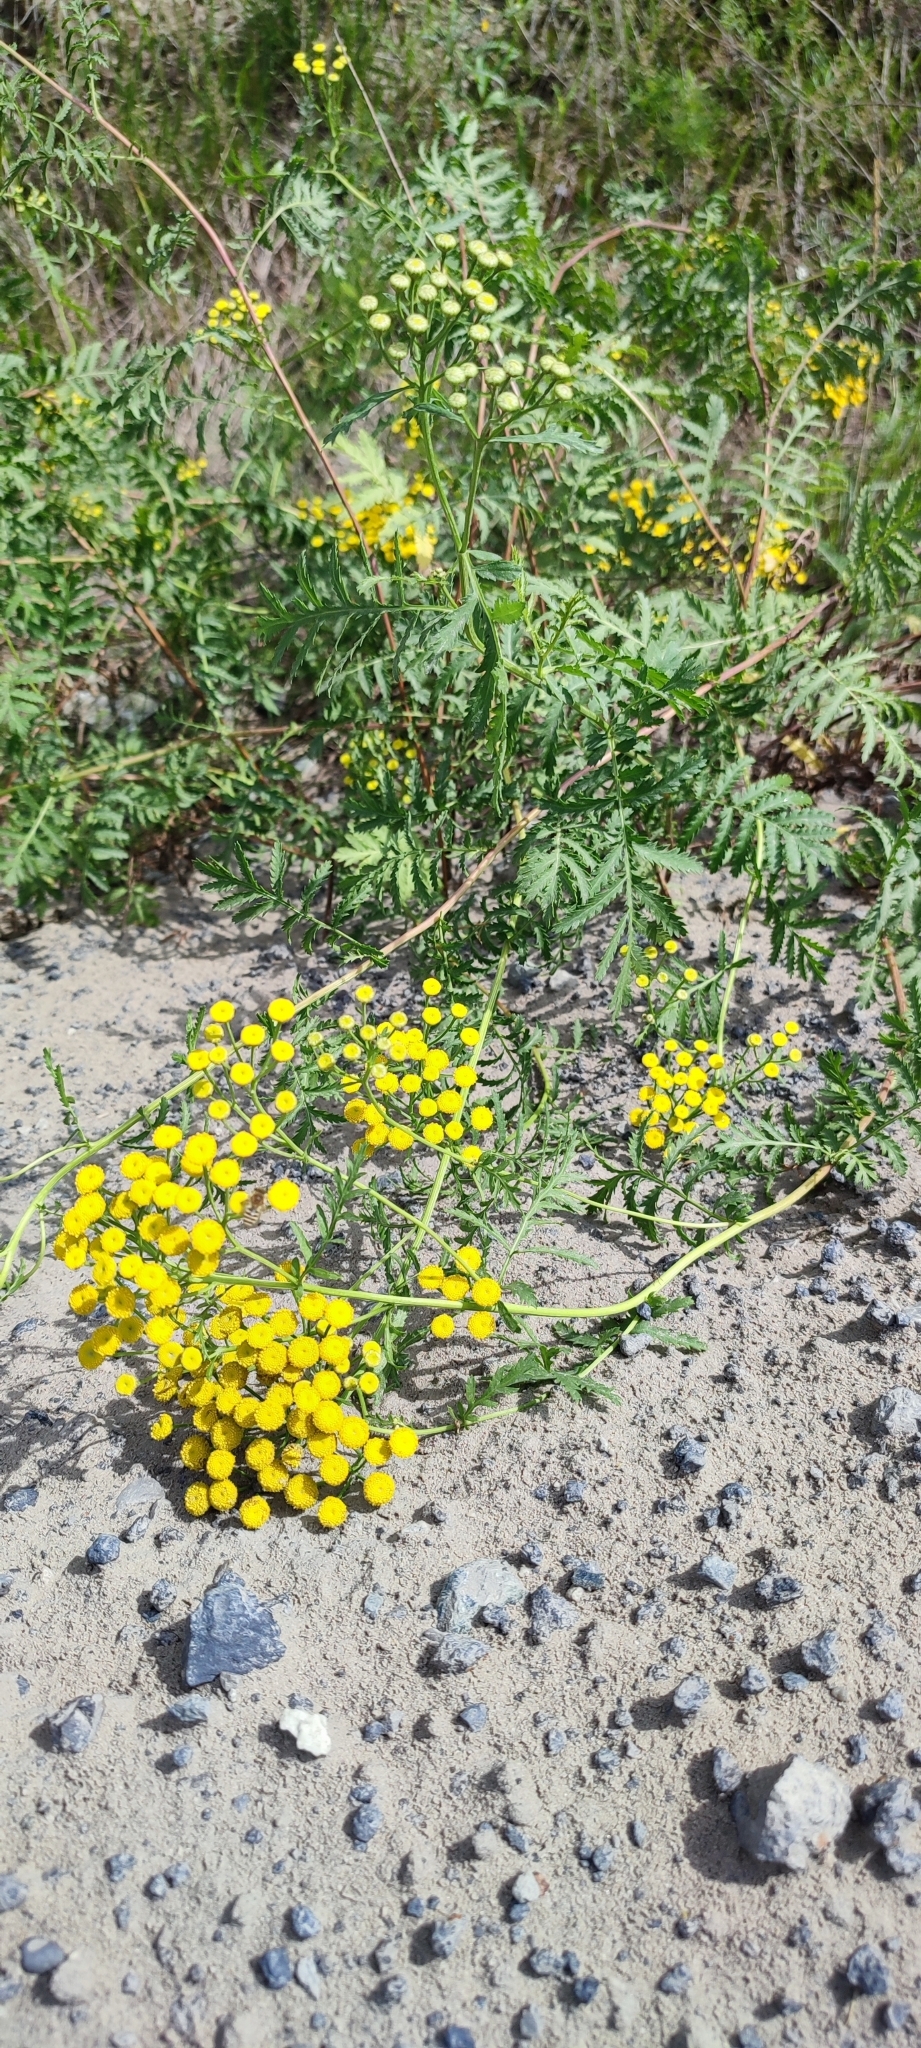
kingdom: Plantae
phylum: Tracheophyta
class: Magnoliopsida
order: Asterales
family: Asteraceae
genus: Tanacetum
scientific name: Tanacetum vulgare
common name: Common tansy
